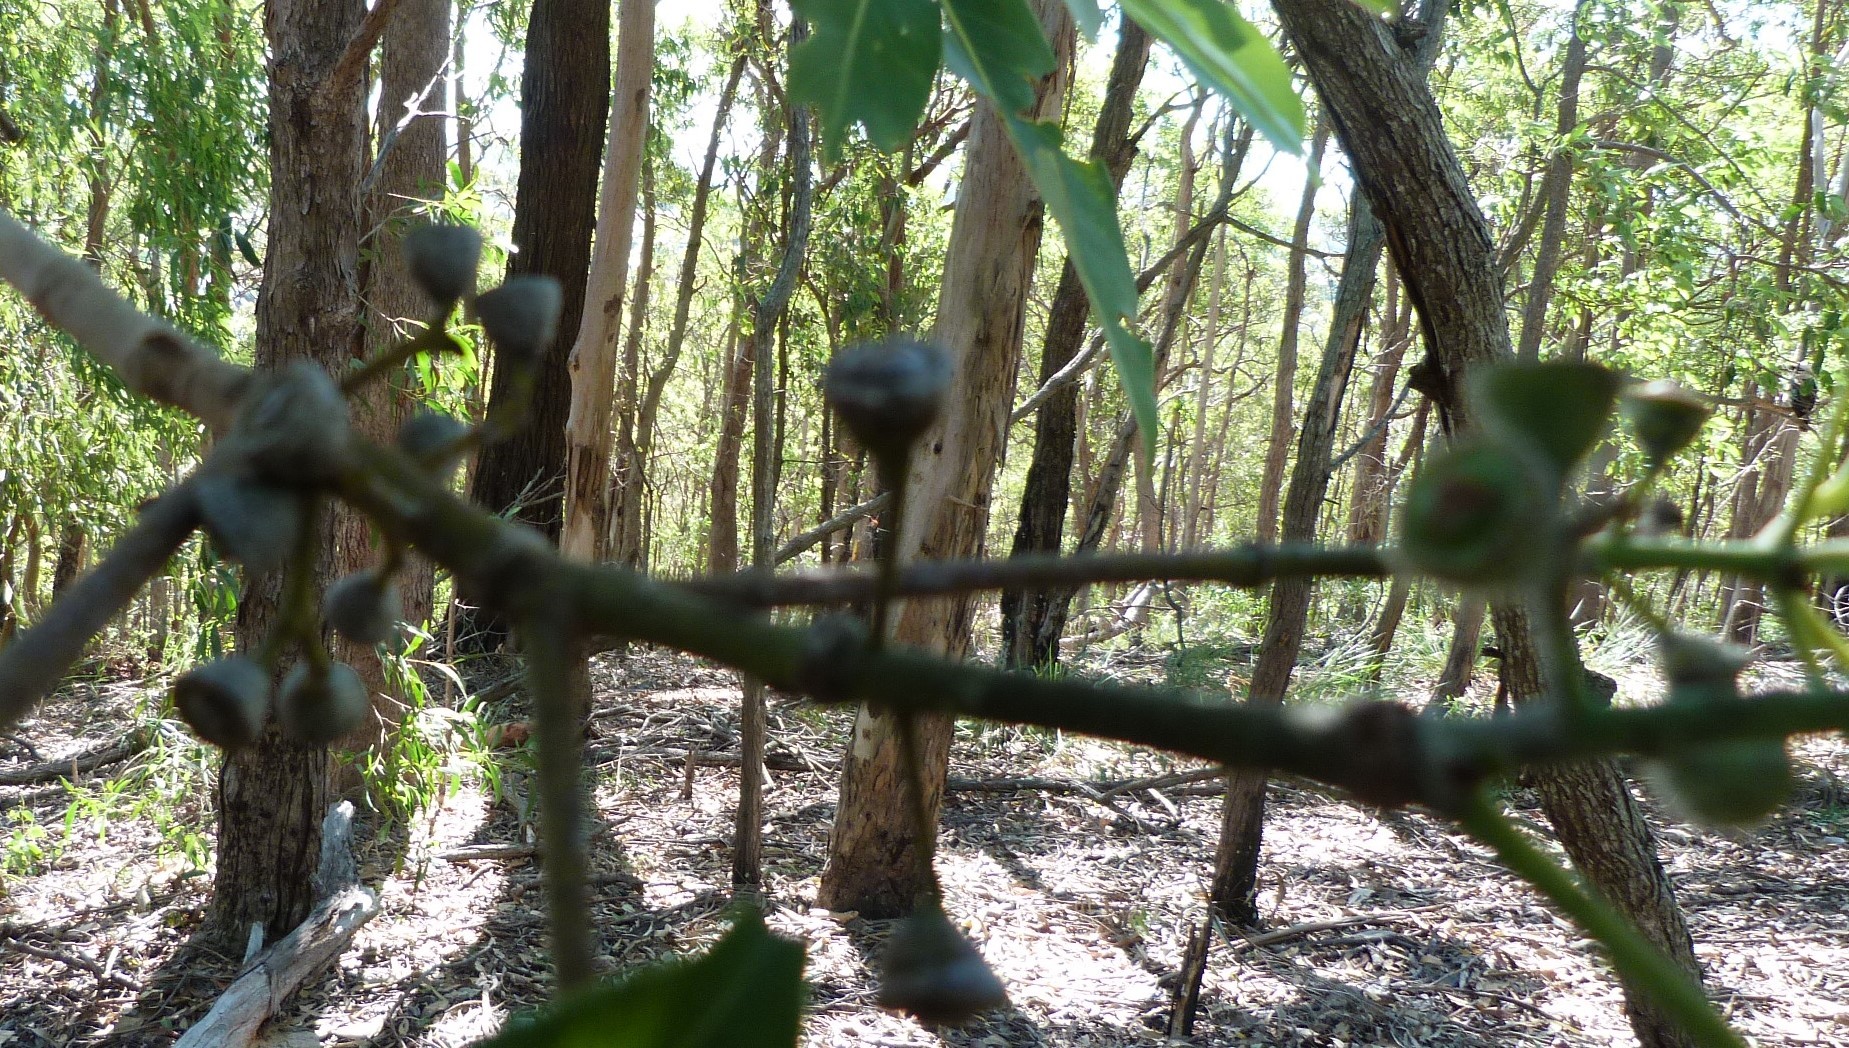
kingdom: Plantae
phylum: Tracheophyta
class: Magnoliopsida
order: Myrtales
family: Myrtaceae
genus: Lophostemon
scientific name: Lophostemon confertus
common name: Brisbane box
